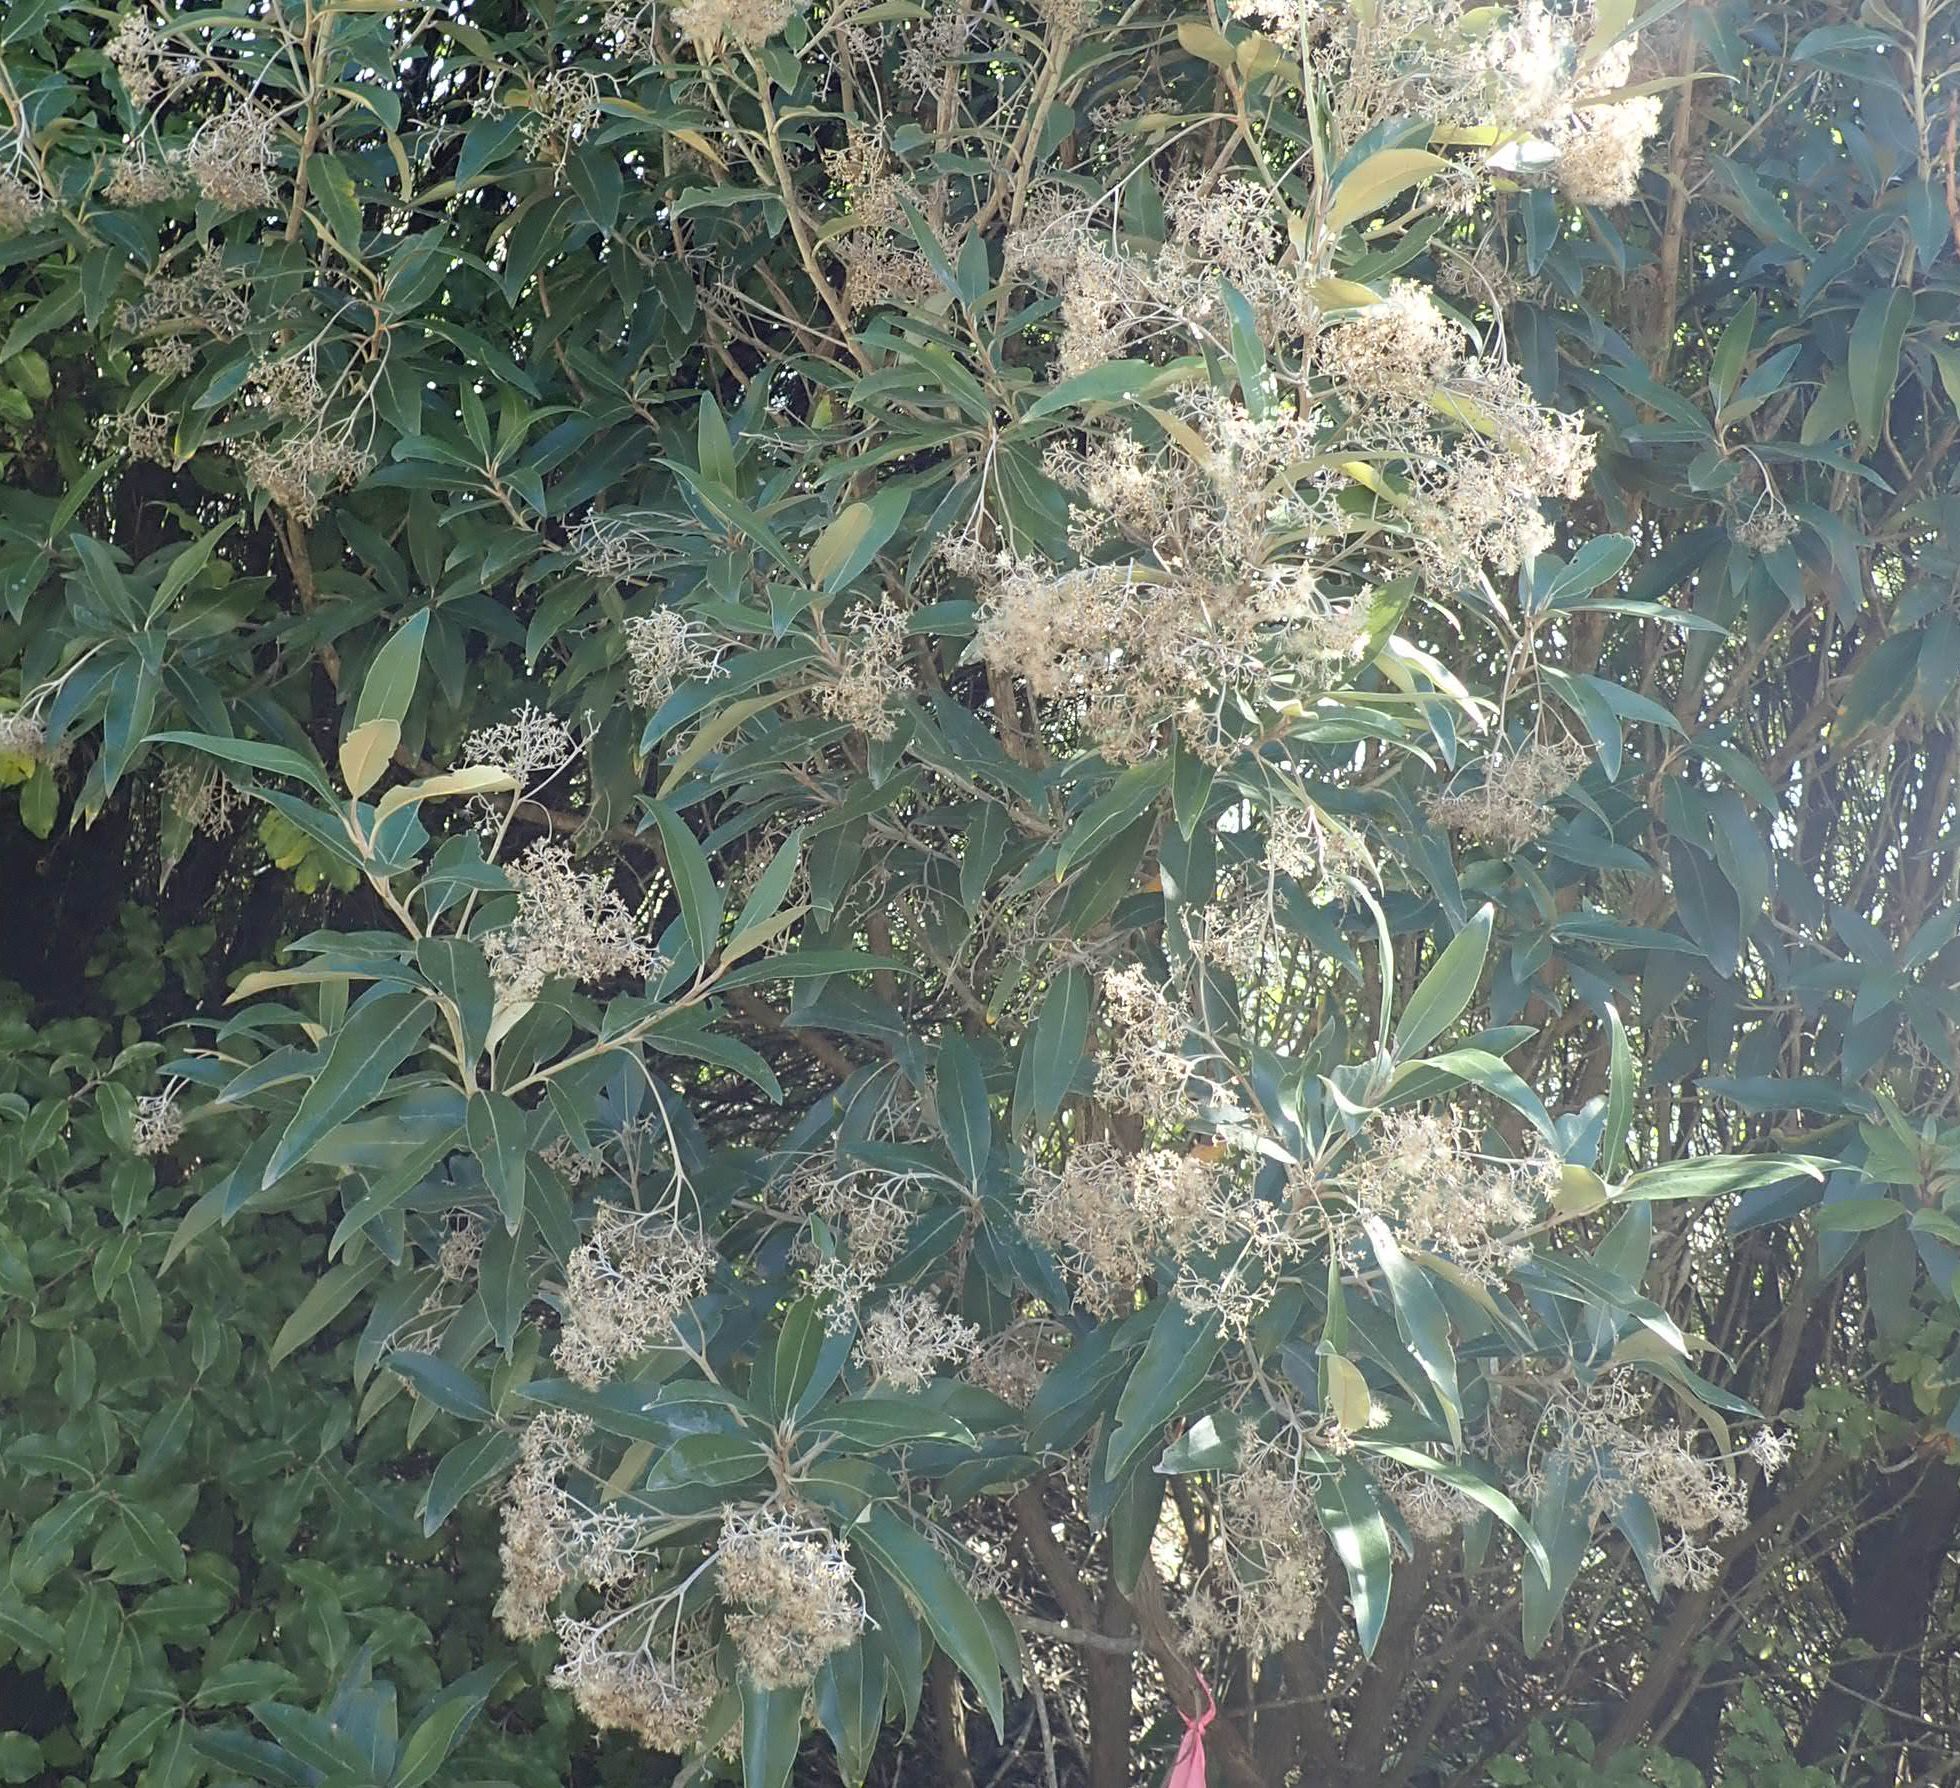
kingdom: Plantae
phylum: Tracheophyta
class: Magnoliopsida
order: Asterales
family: Asteraceae
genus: Olearia
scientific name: Olearia avicenniifolia
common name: Mangrove-leaf daisybush
